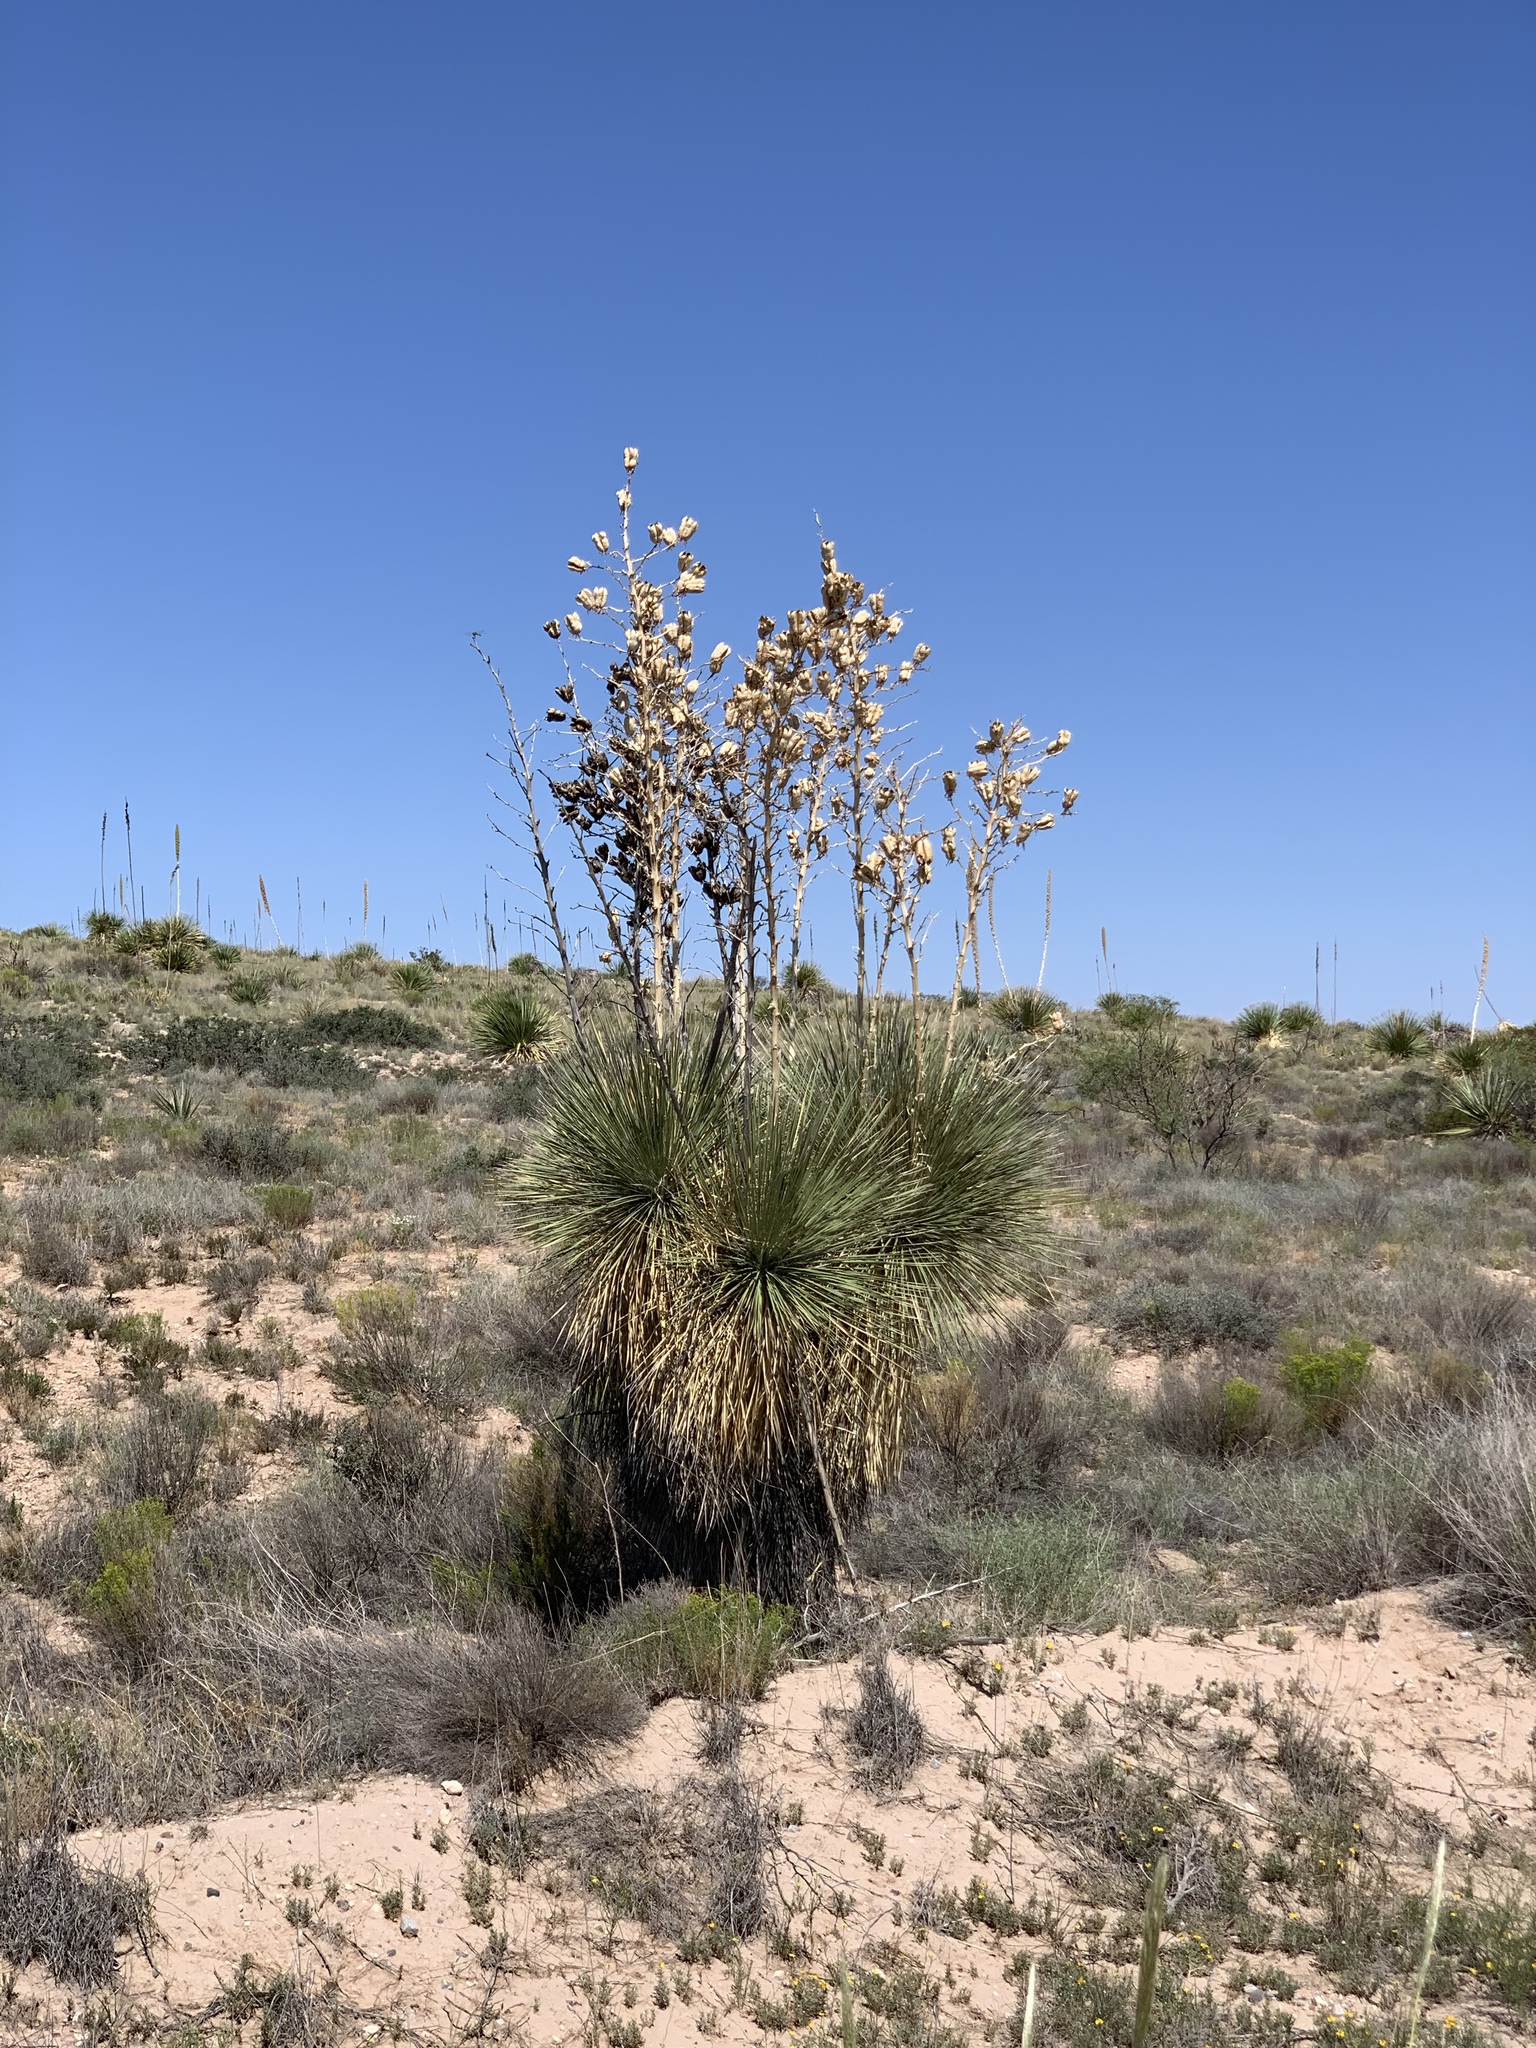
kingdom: Plantae
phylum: Tracheophyta
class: Liliopsida
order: Asparagales
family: Asparagaceae
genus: Yucca
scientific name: Yucca elata
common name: Palmella
